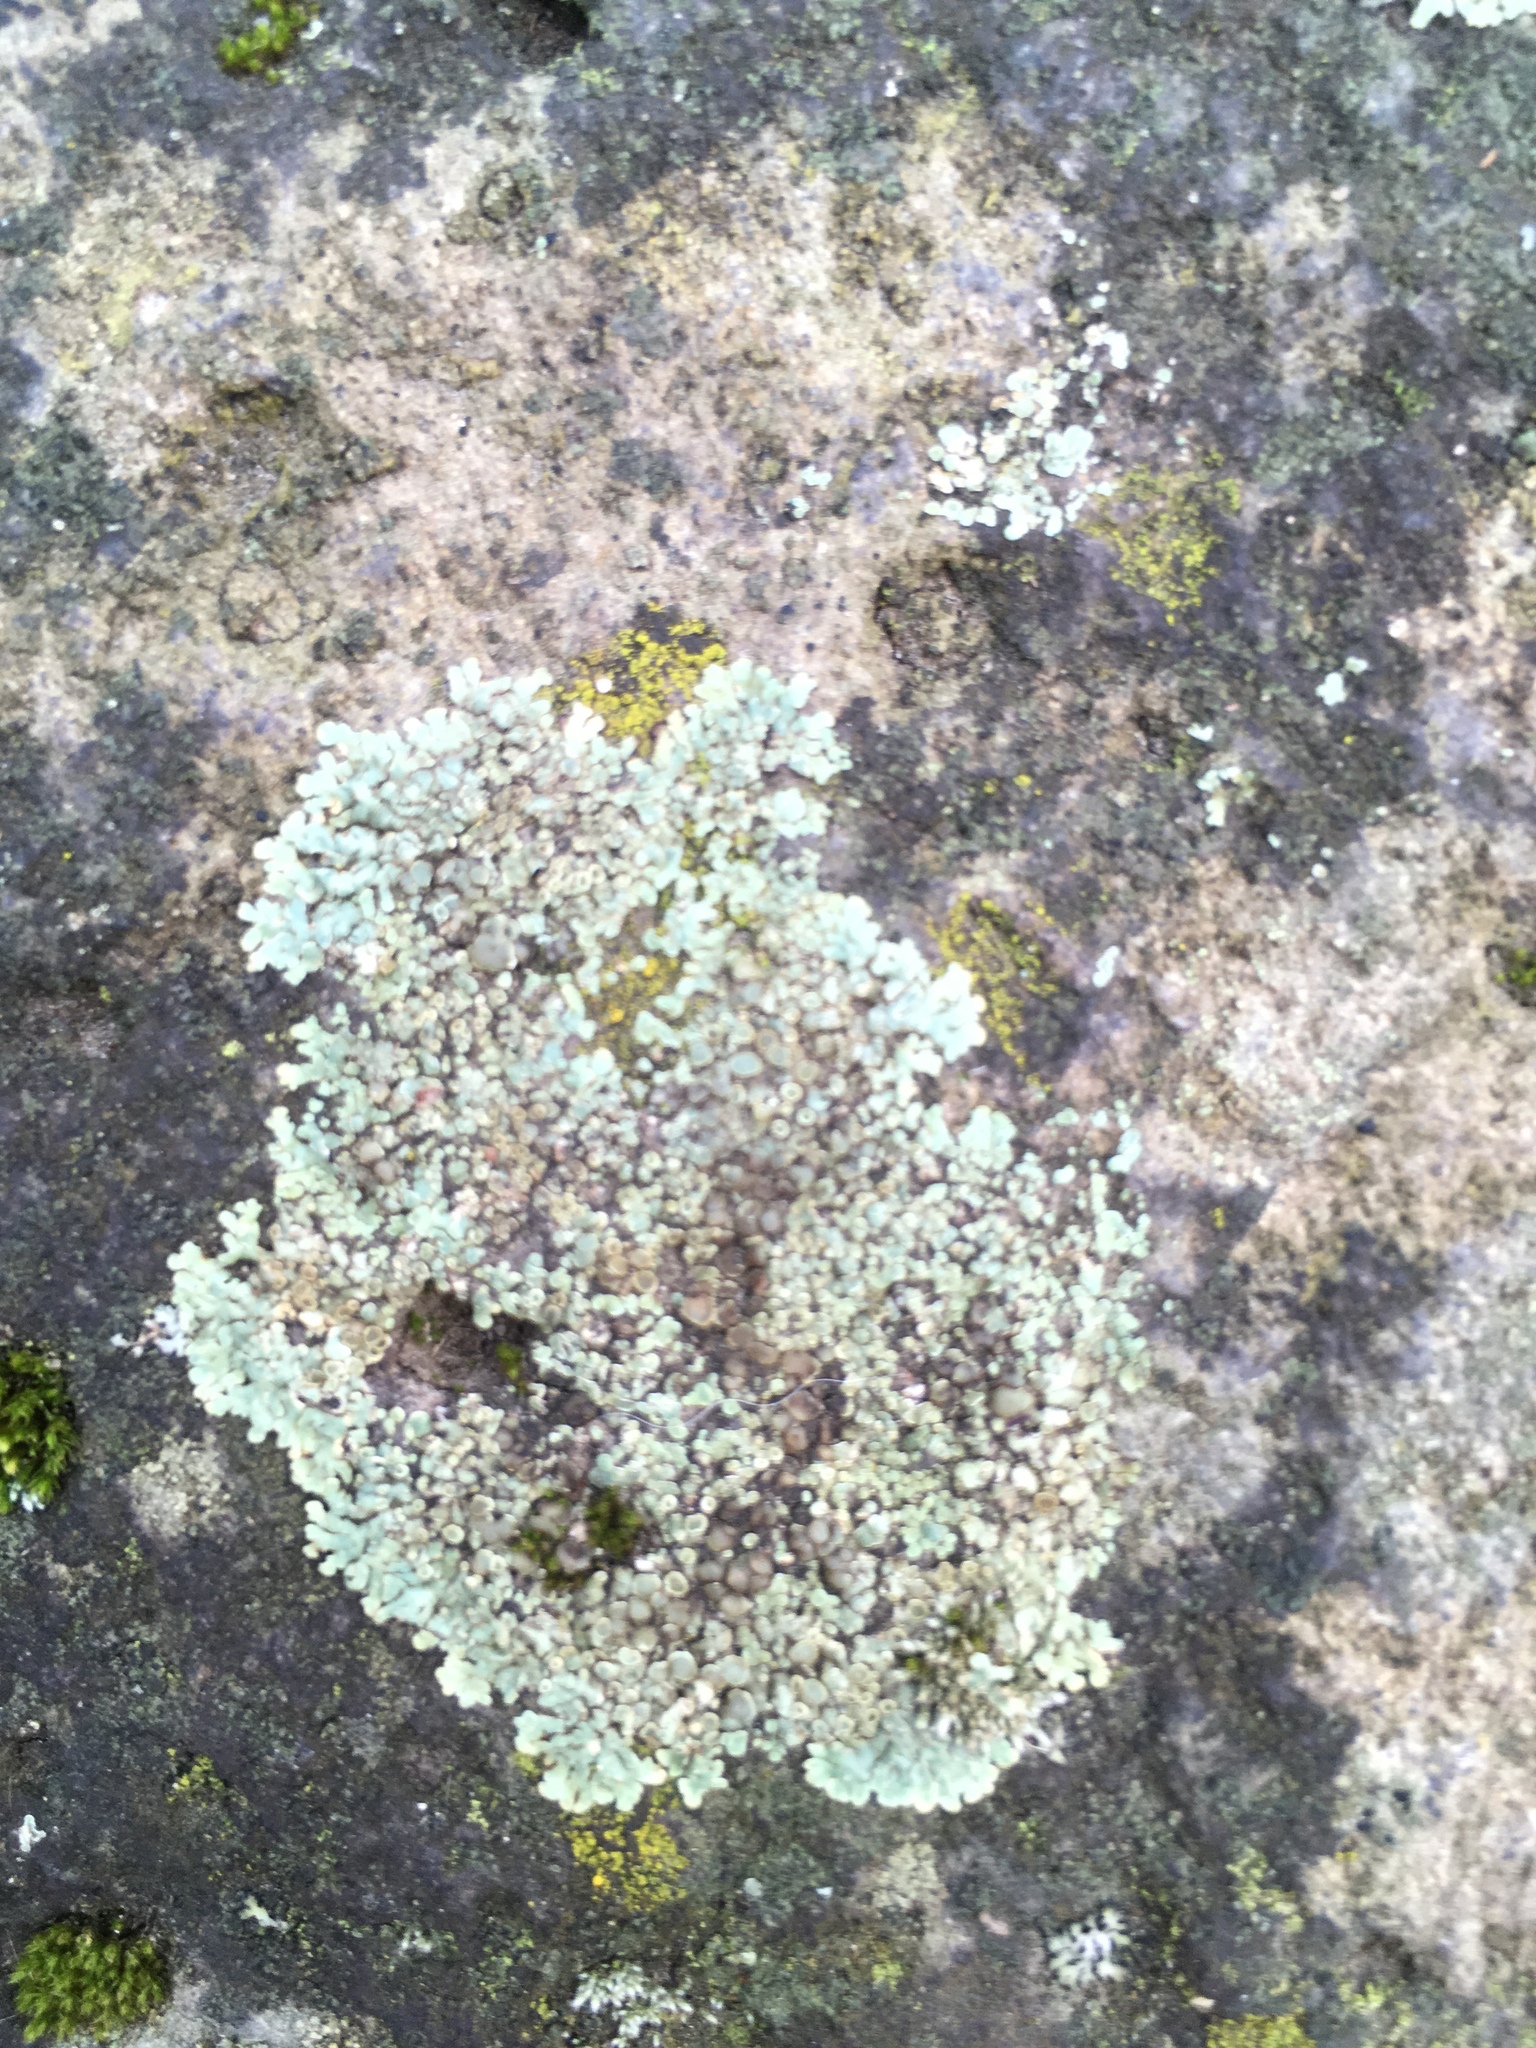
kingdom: Fungi
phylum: Ascomycota
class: Lecanoromycetes
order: Lecanorales
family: Lecanoraceae
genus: Protoparmeliopsis
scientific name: Protoparmeliopsis muralis
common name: Stonewall rim lichen
